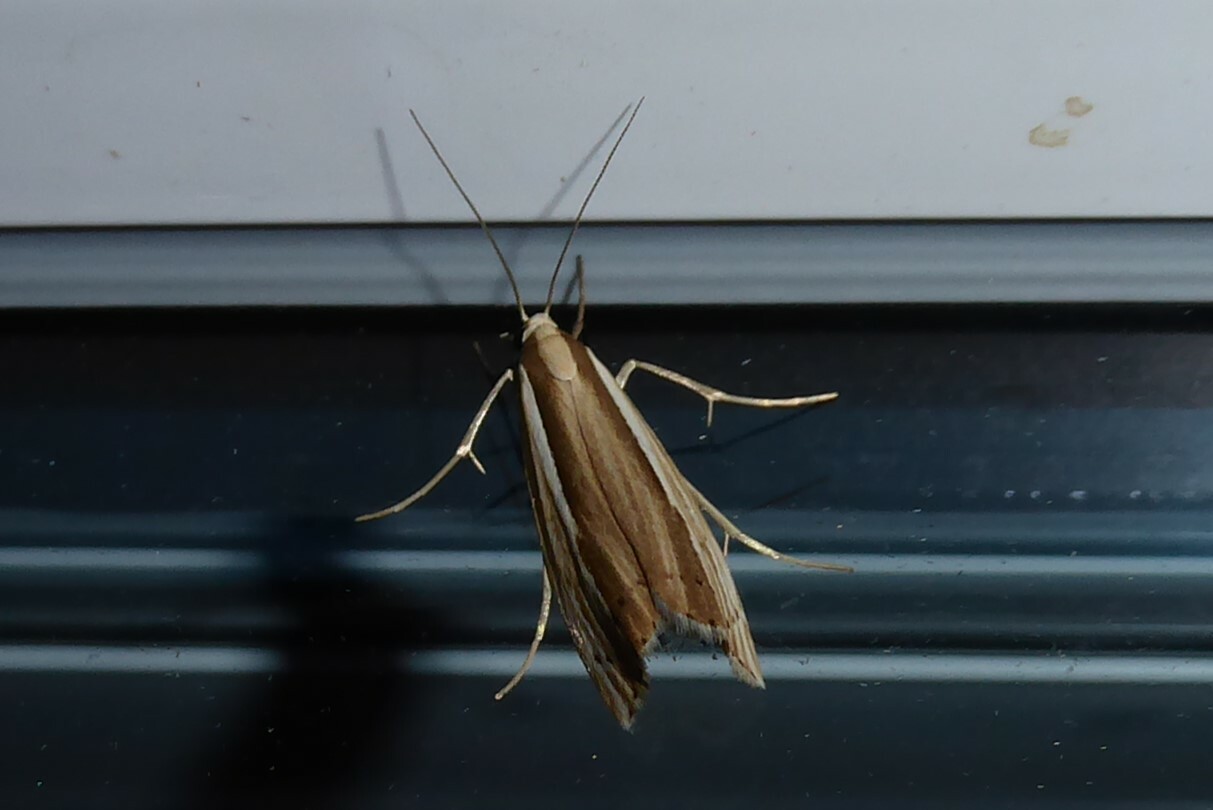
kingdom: Animalia
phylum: Arthropoda
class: Insecta
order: Lepidoptera
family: Crambidae
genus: Orocrambus
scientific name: Orocrambus ramosellus
